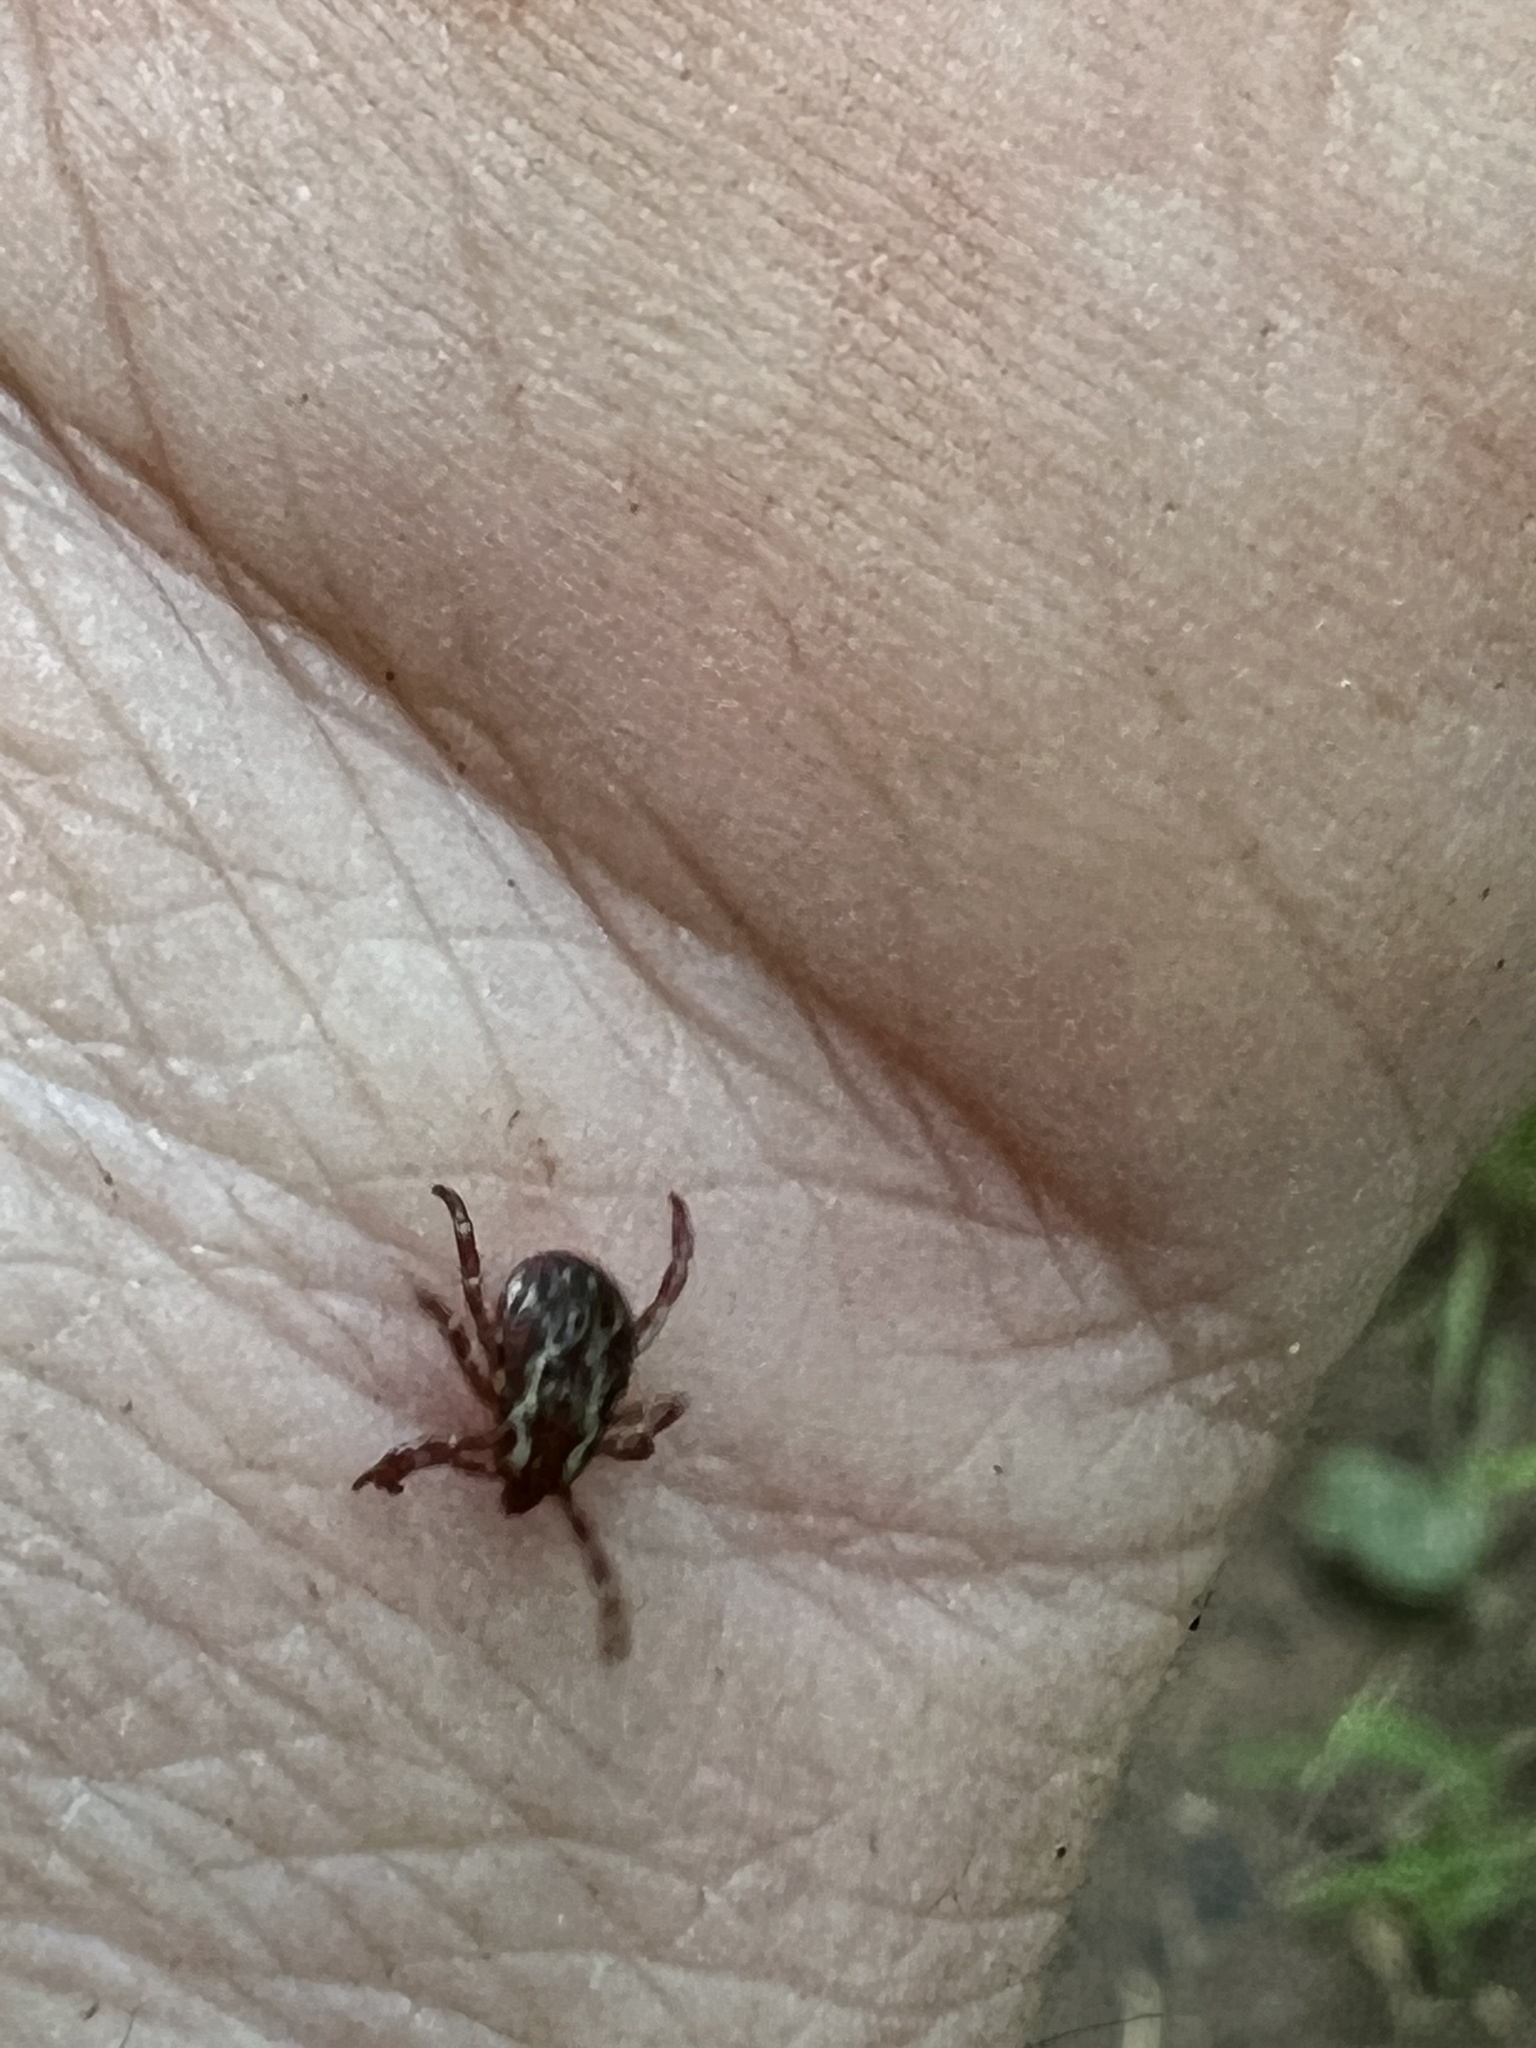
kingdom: Animalia
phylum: Arthropoda
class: Arachnida
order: Ixodida
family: Ixodidae
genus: Dermacentor
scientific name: Dermacentor variabilis
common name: American dog tick
